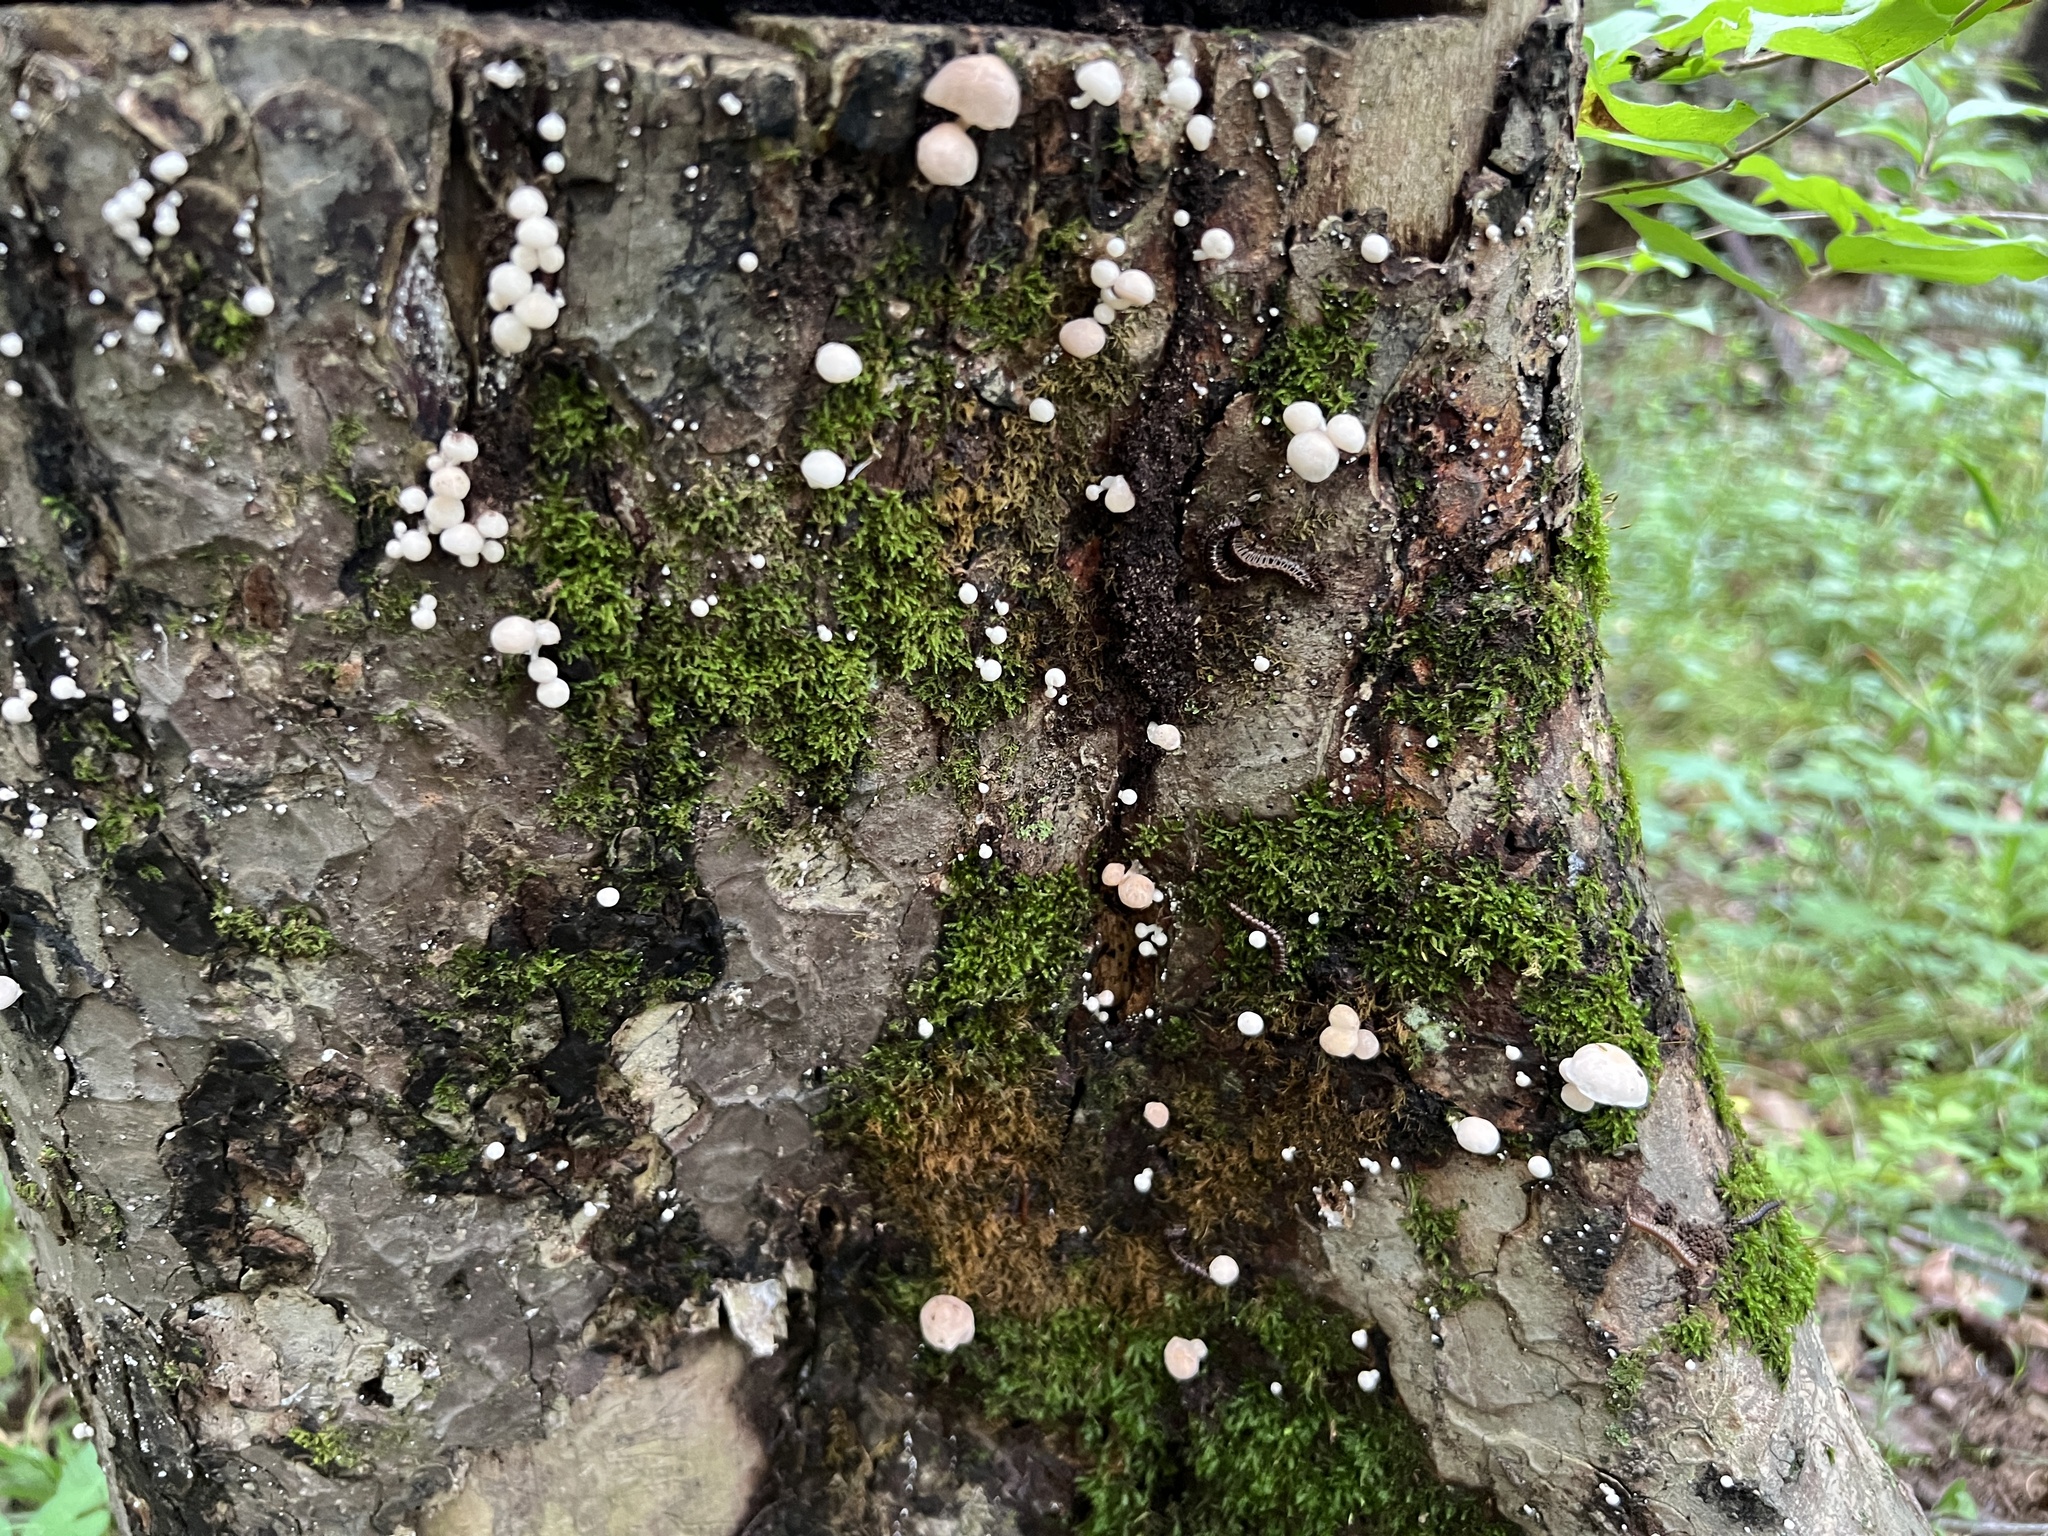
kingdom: Fungi
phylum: Basidiomycota
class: Agaricomycetes
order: Agaricales
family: Omphalotaceae
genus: Marasmiellus
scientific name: Marasmiellus candidus
